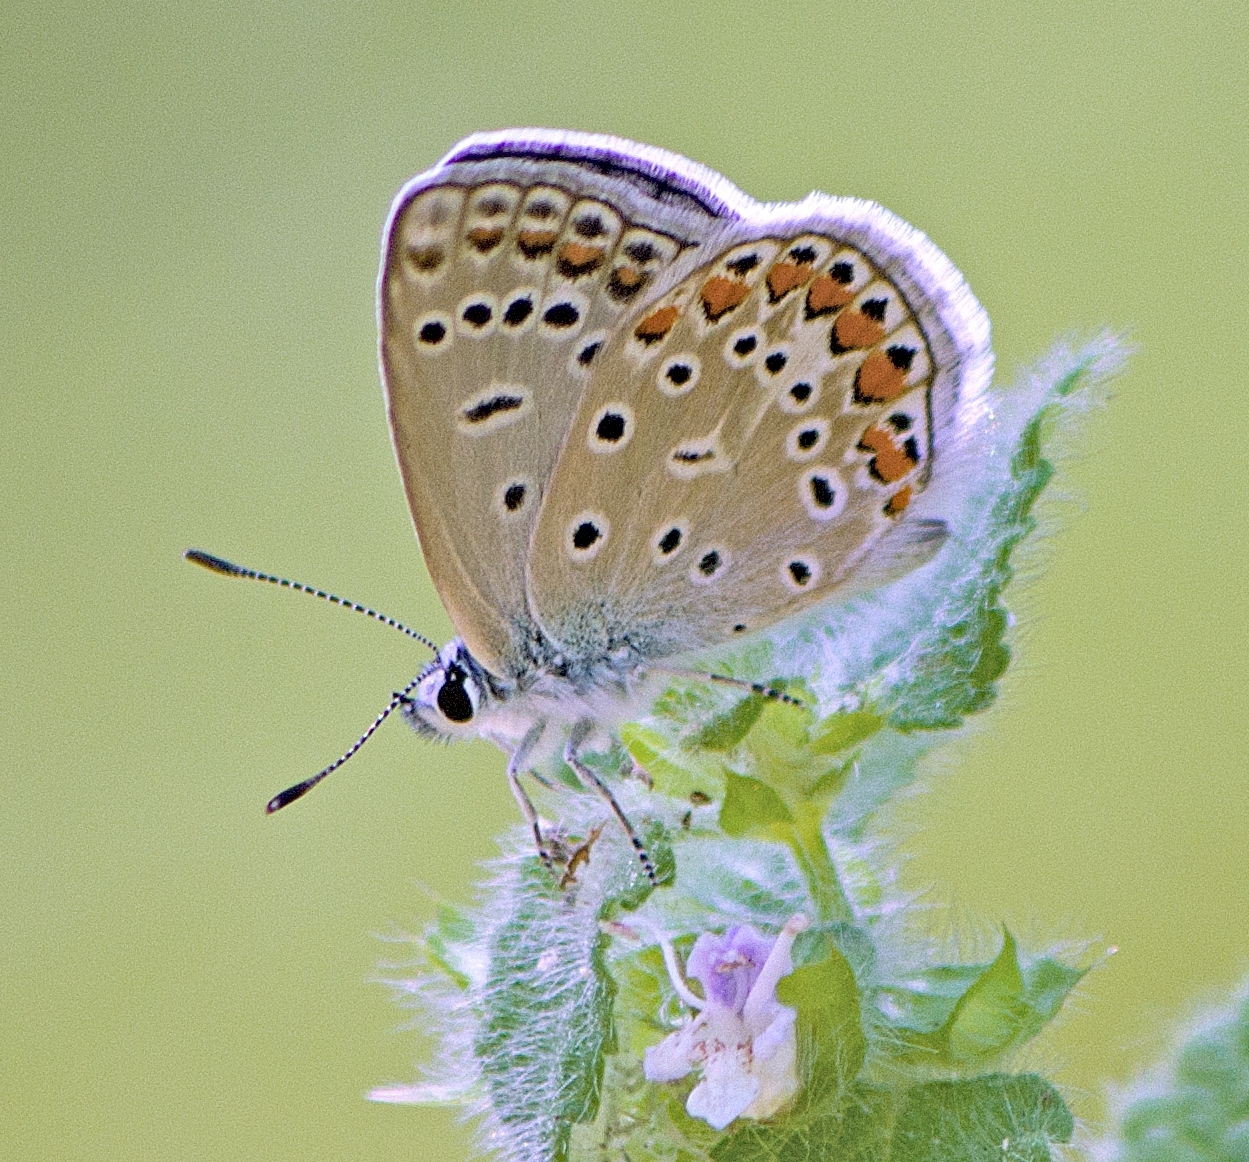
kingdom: Animalia
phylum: Arthropoda
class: Insecta
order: Lepidoptera
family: Lycaenidae
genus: Polyommatus
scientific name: Polyommatus icarus
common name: Common blue
